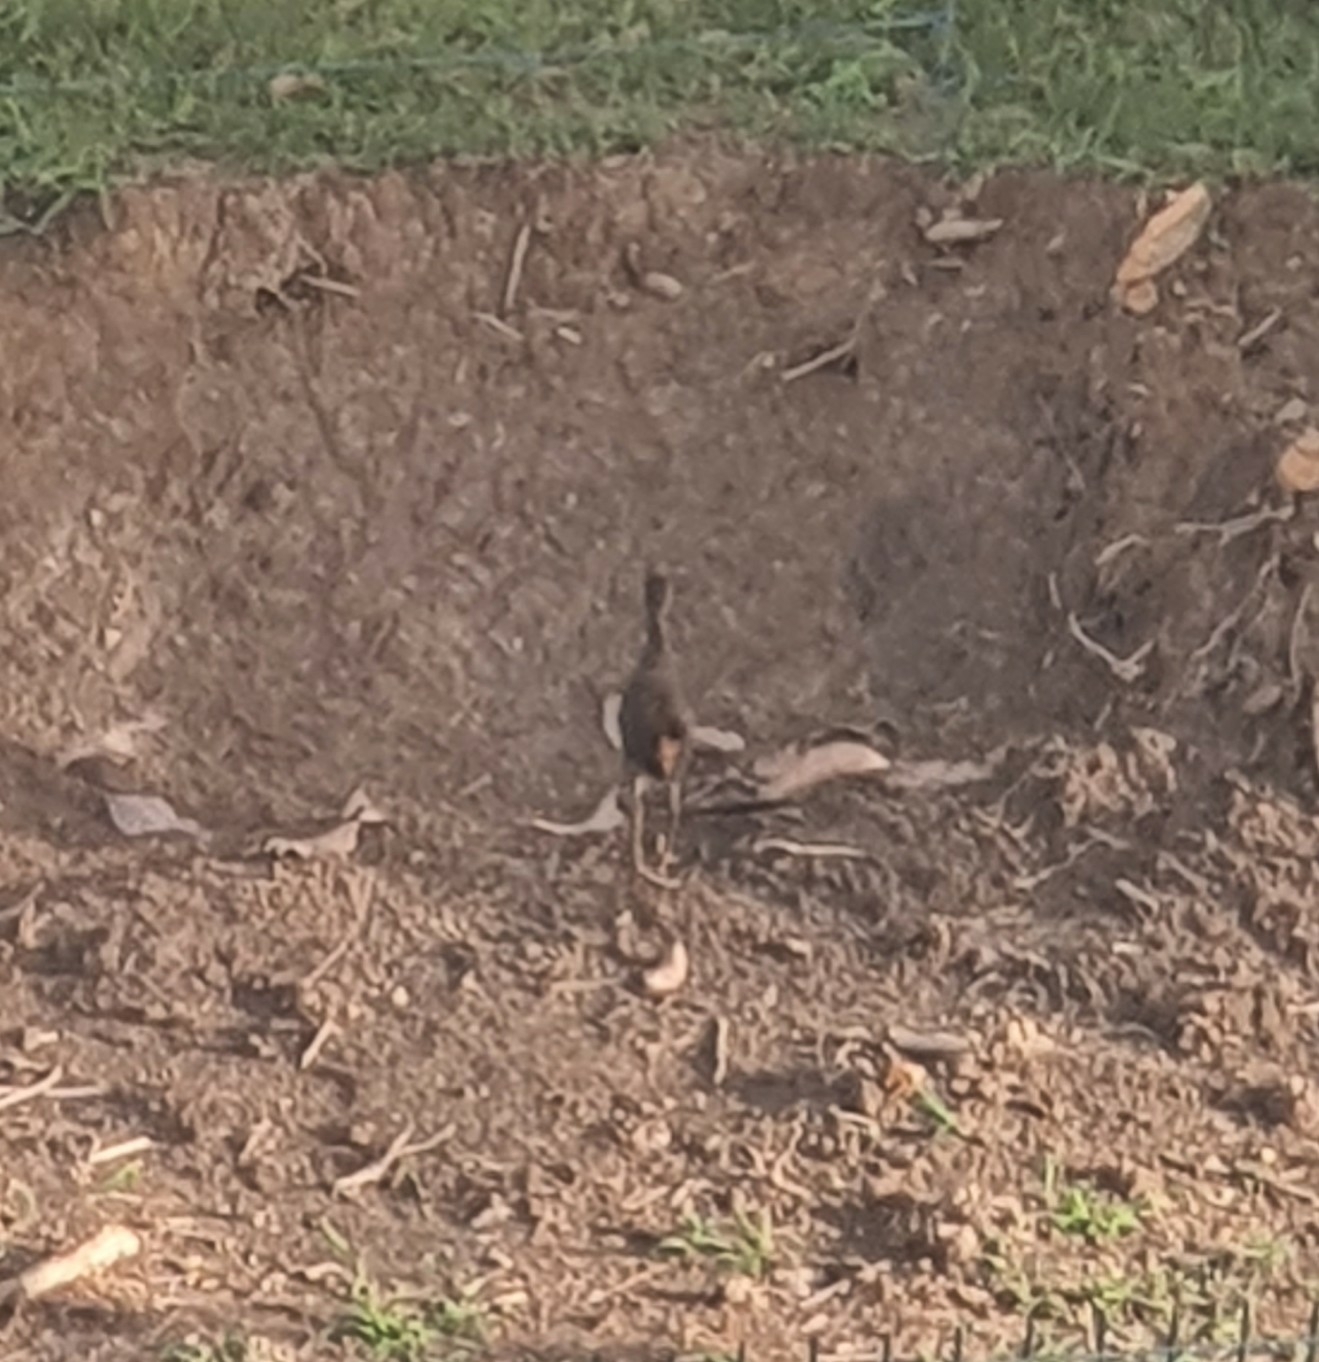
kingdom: Animalia
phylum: Chordata
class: Aves
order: Gruiformes
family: Rallidae
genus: Amaurornis
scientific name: Amaurornis phoenicurus
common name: White-breasted waterhen
